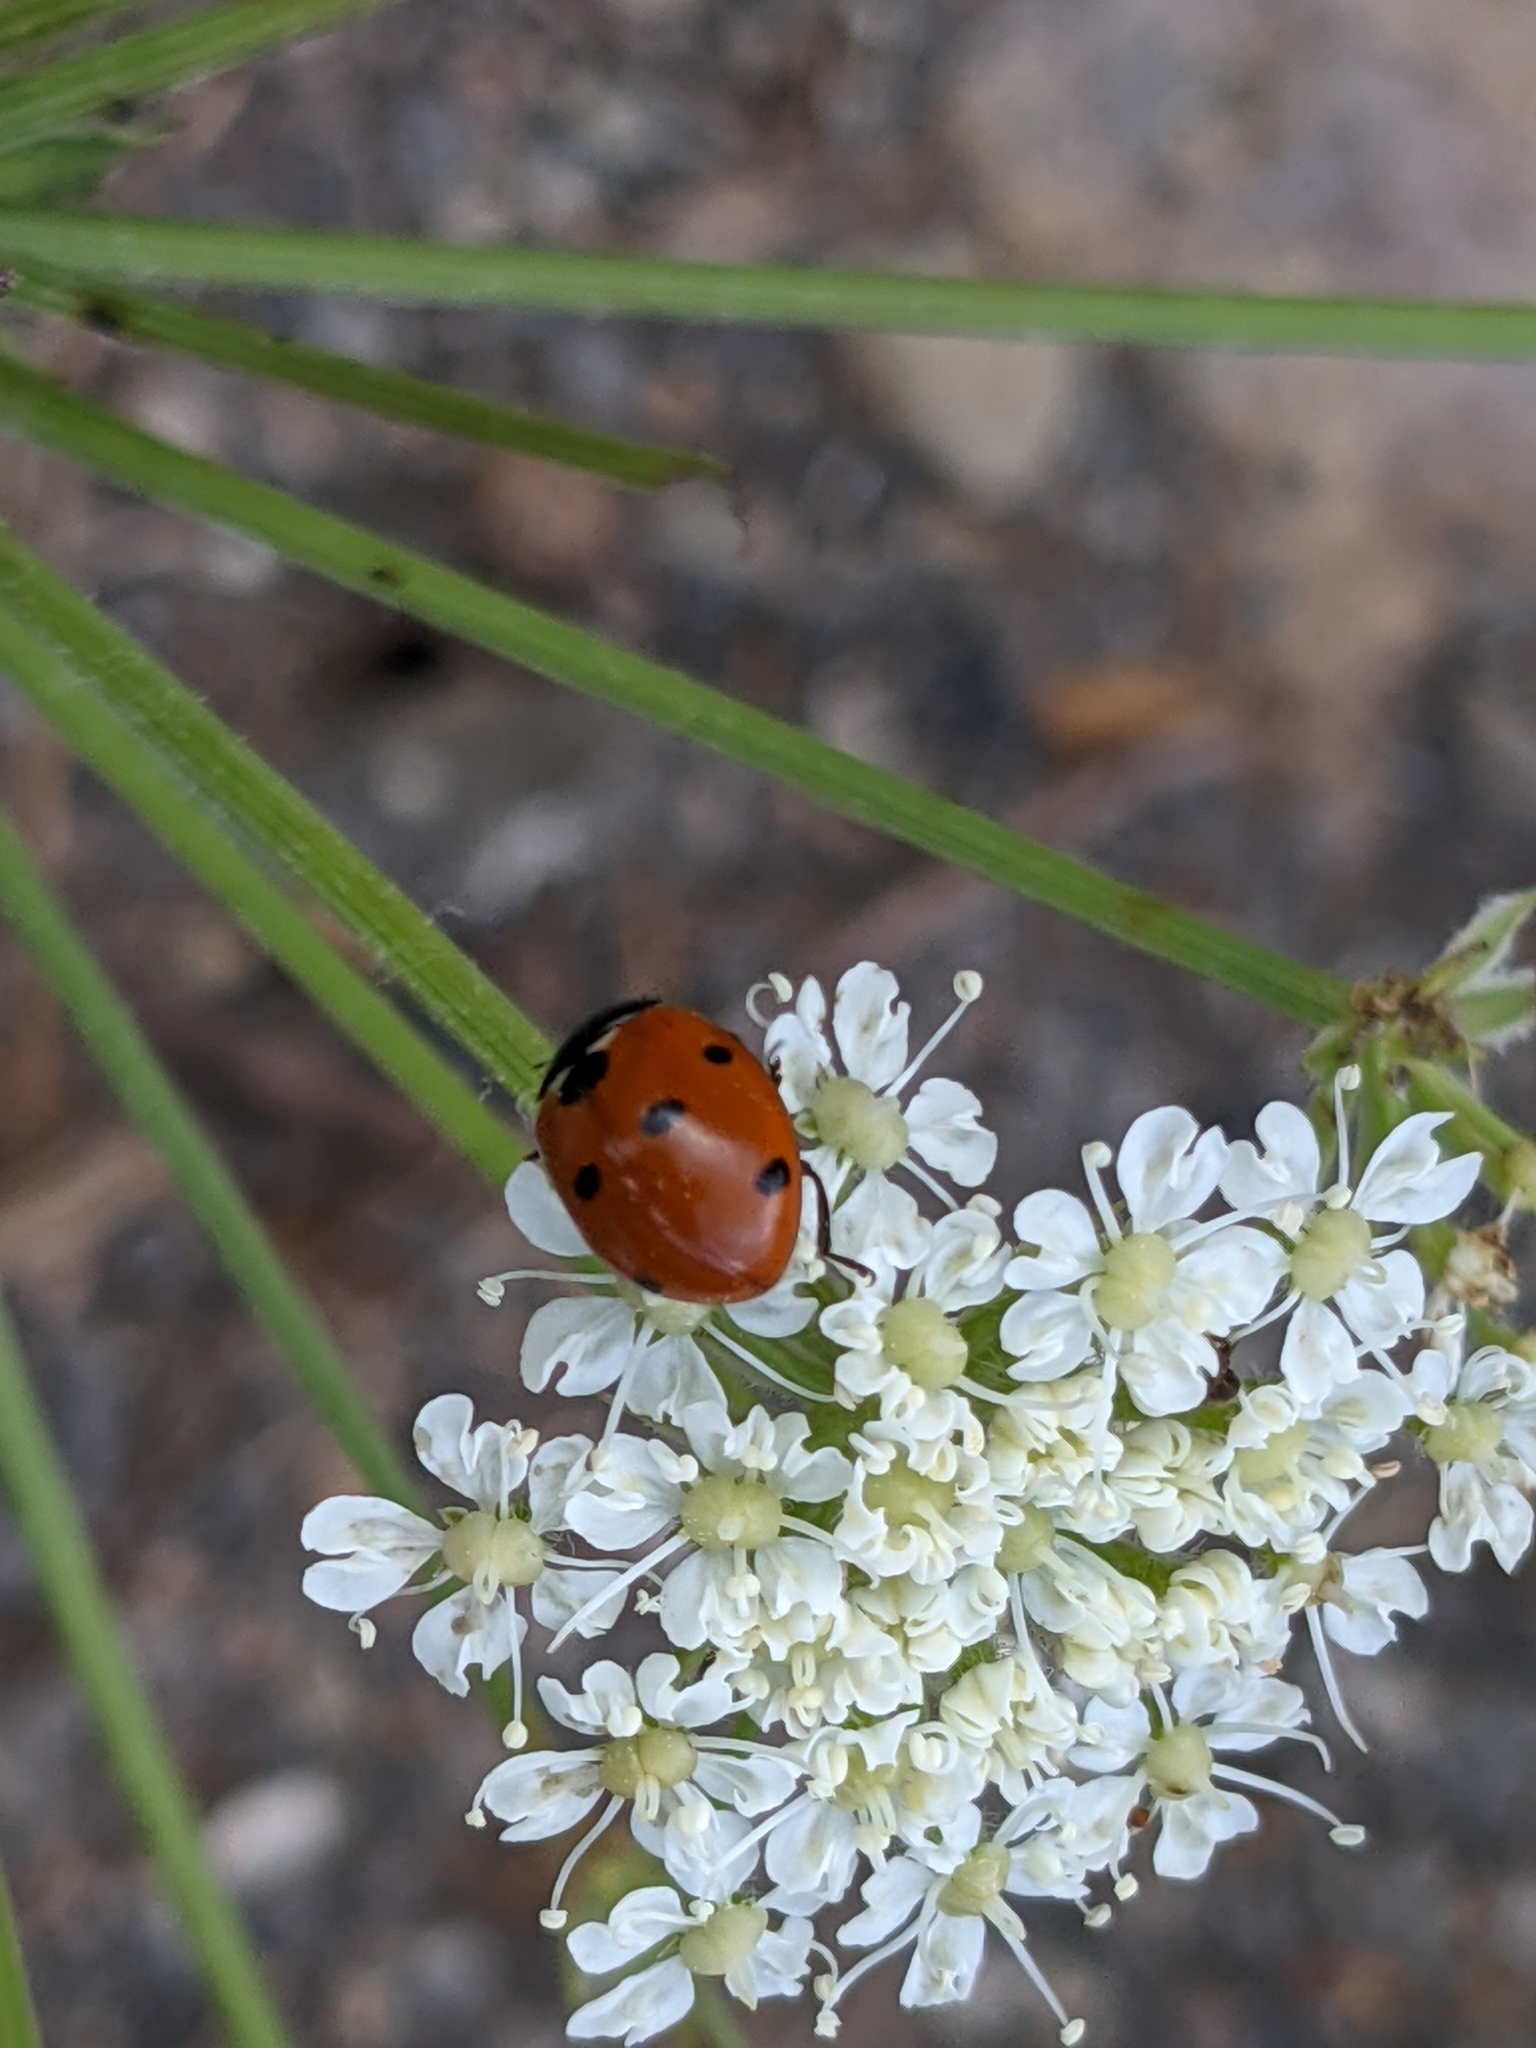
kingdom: Animalia
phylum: Arthropoda
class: Insecta
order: Coleoptera
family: Coccinellidae
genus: Coccinella
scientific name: Coccinella septempunctata
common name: Sevenspotted lady beetle
